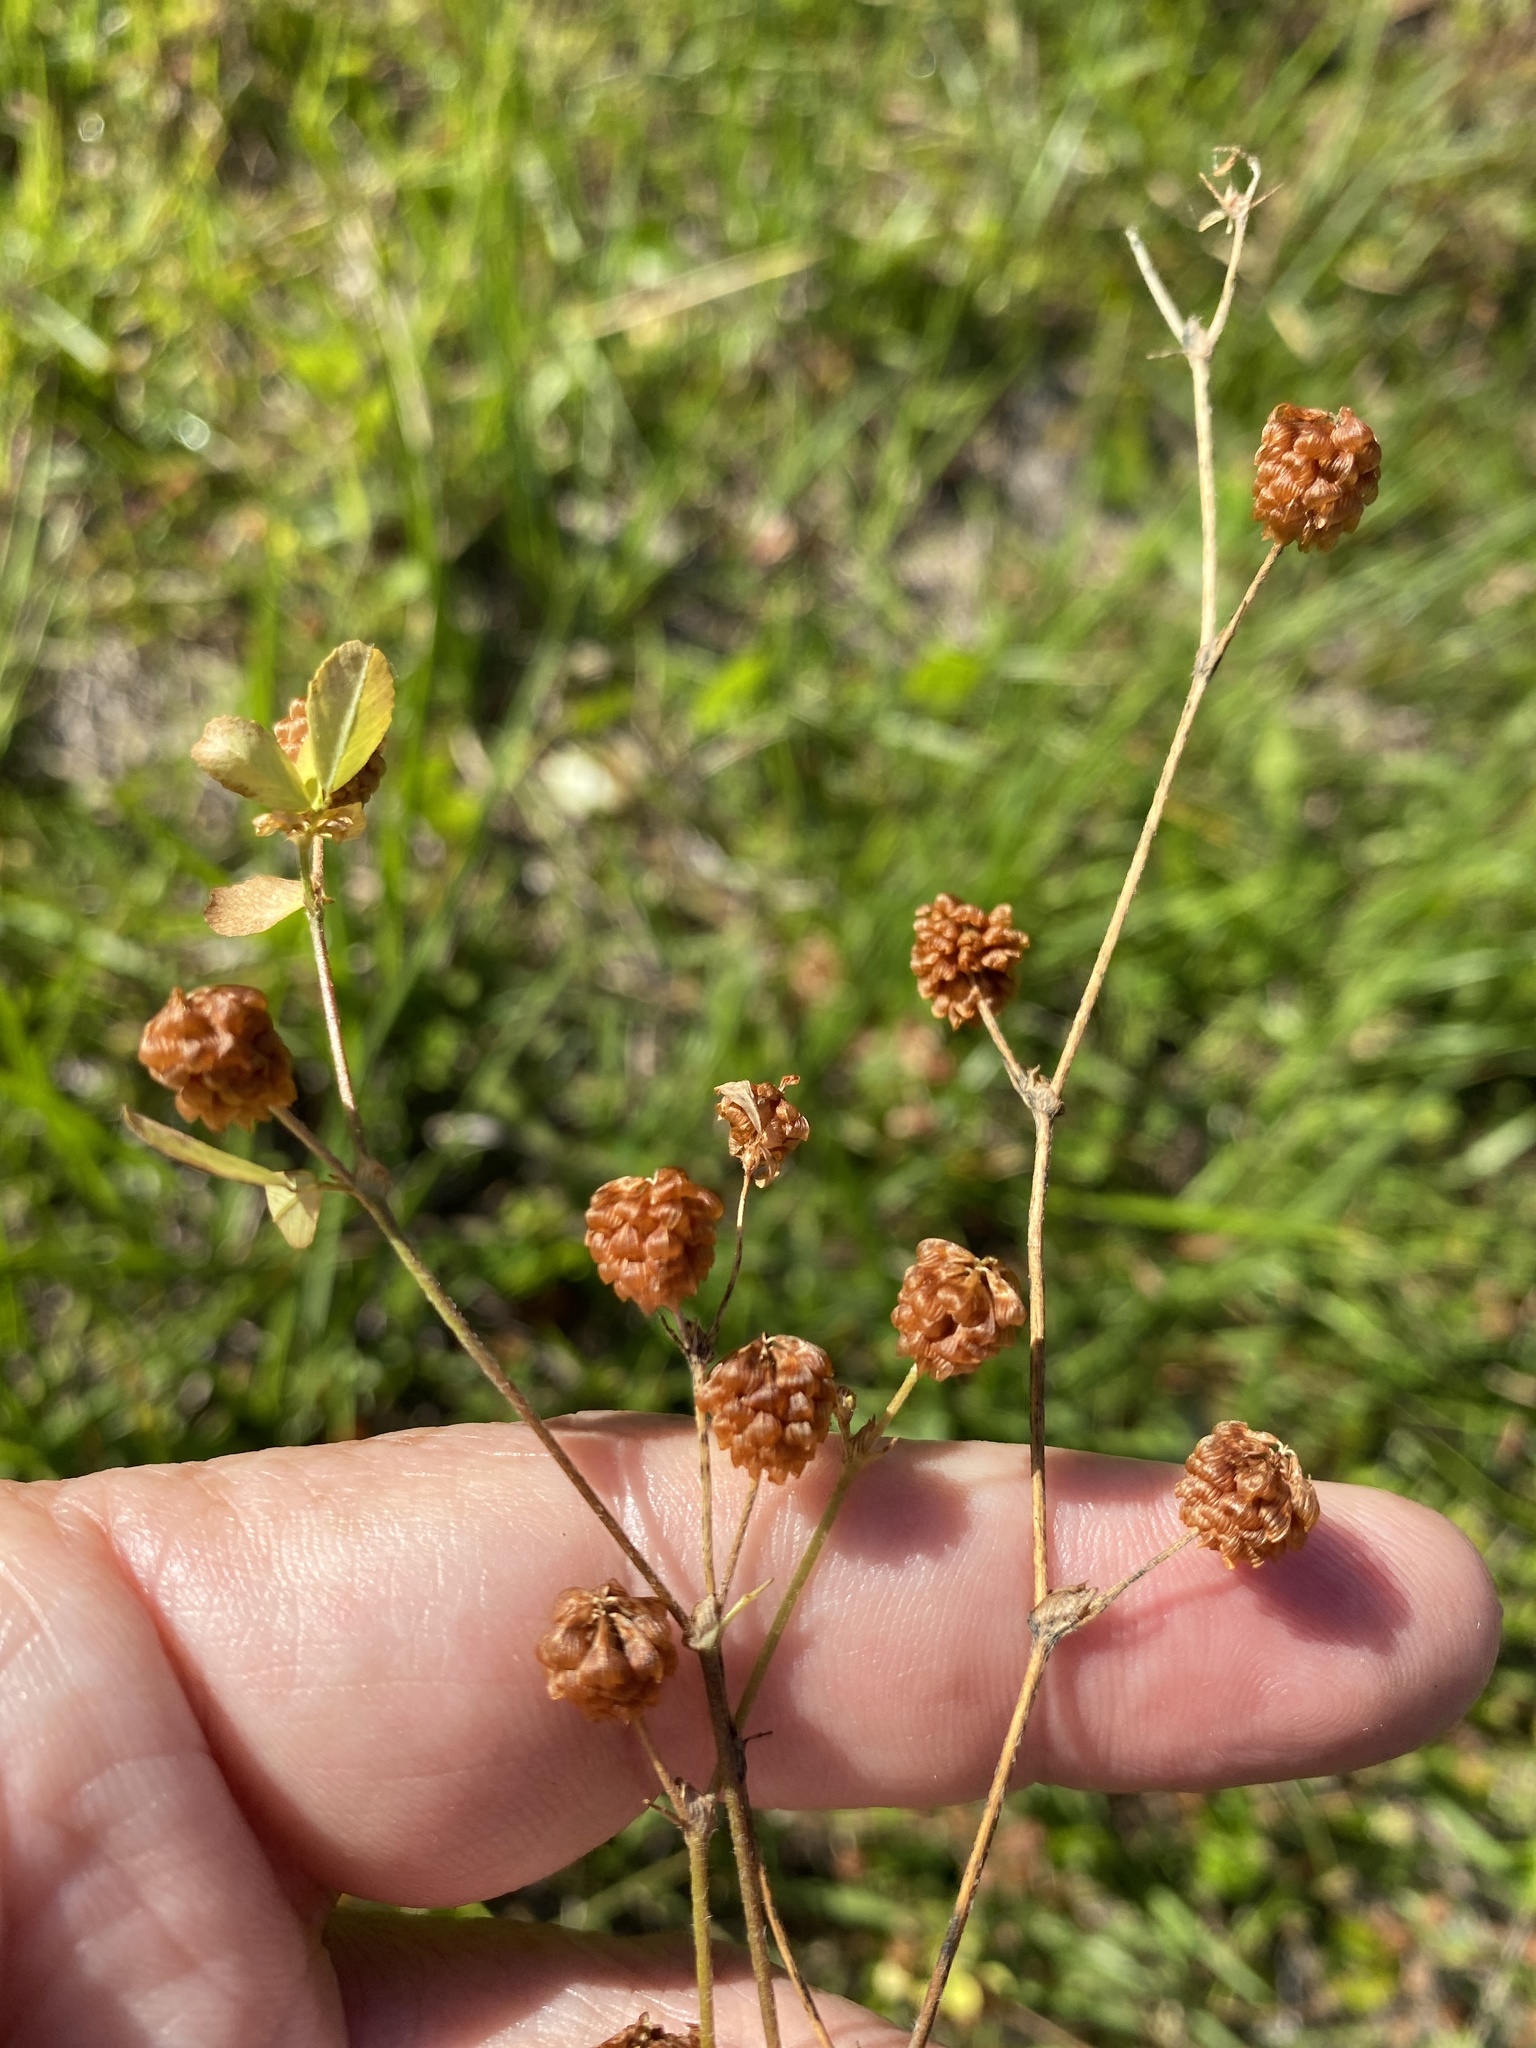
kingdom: Plantae
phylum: Tracheophyta
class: Magnoliopsida
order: Fabales
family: Fabaceae
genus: Trifolium
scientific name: Trifolium campestre
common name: Field clover
